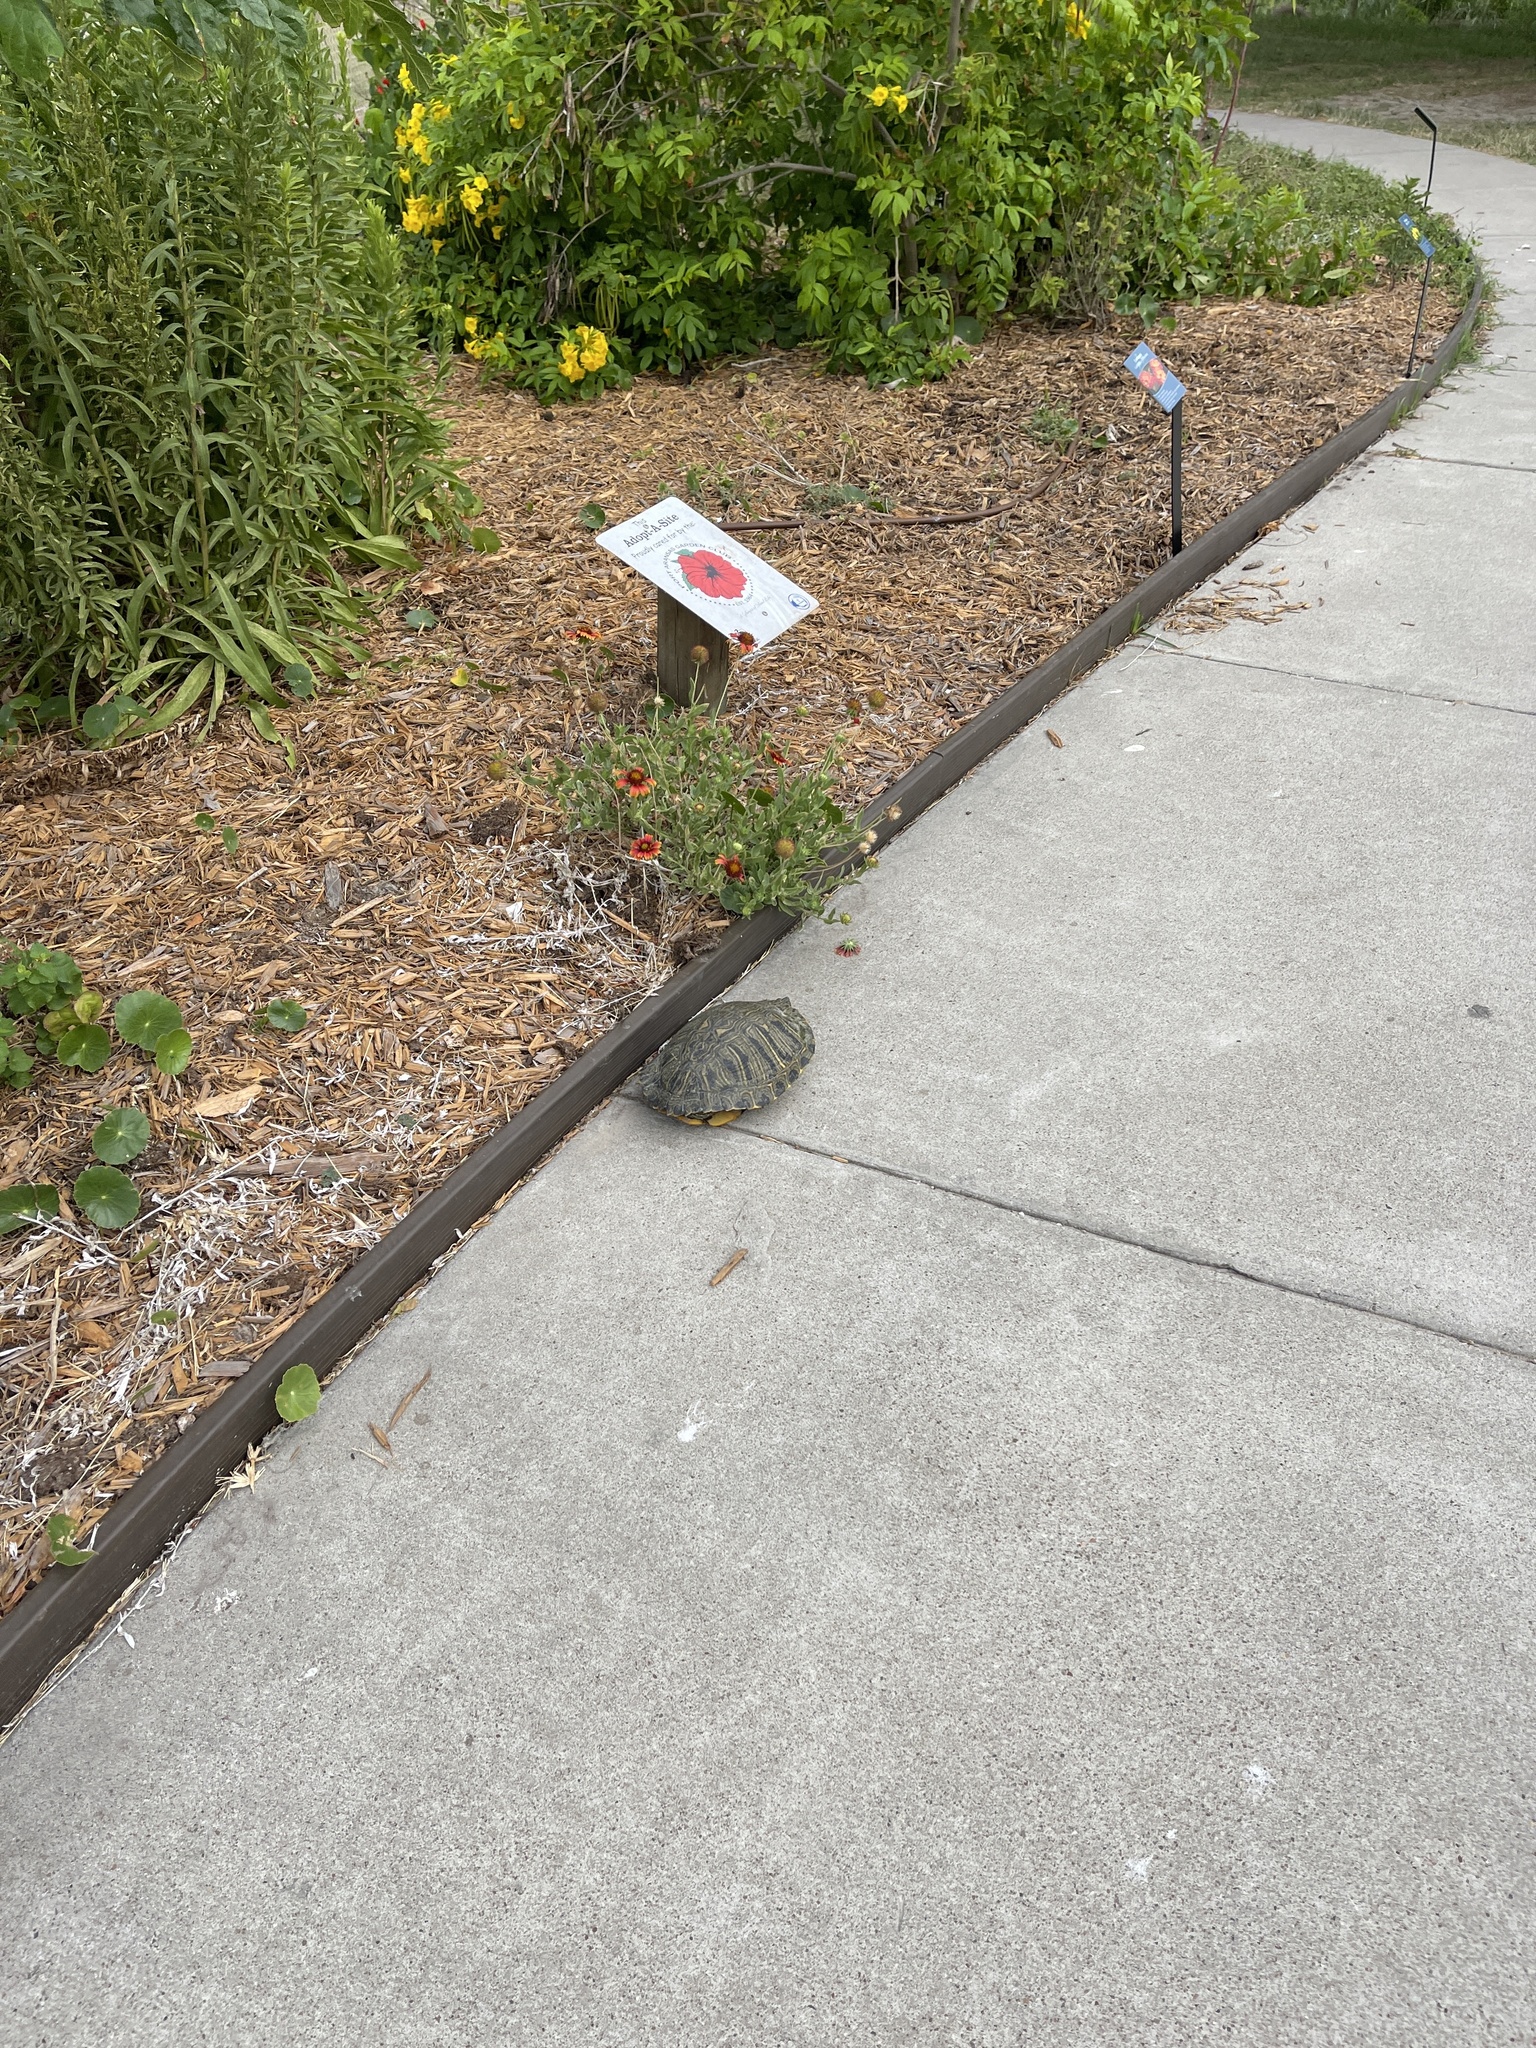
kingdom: Animalia
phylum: Chordata
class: Testudines
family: Emydidae
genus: Trachemys
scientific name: Trachemys scripta
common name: Slider
